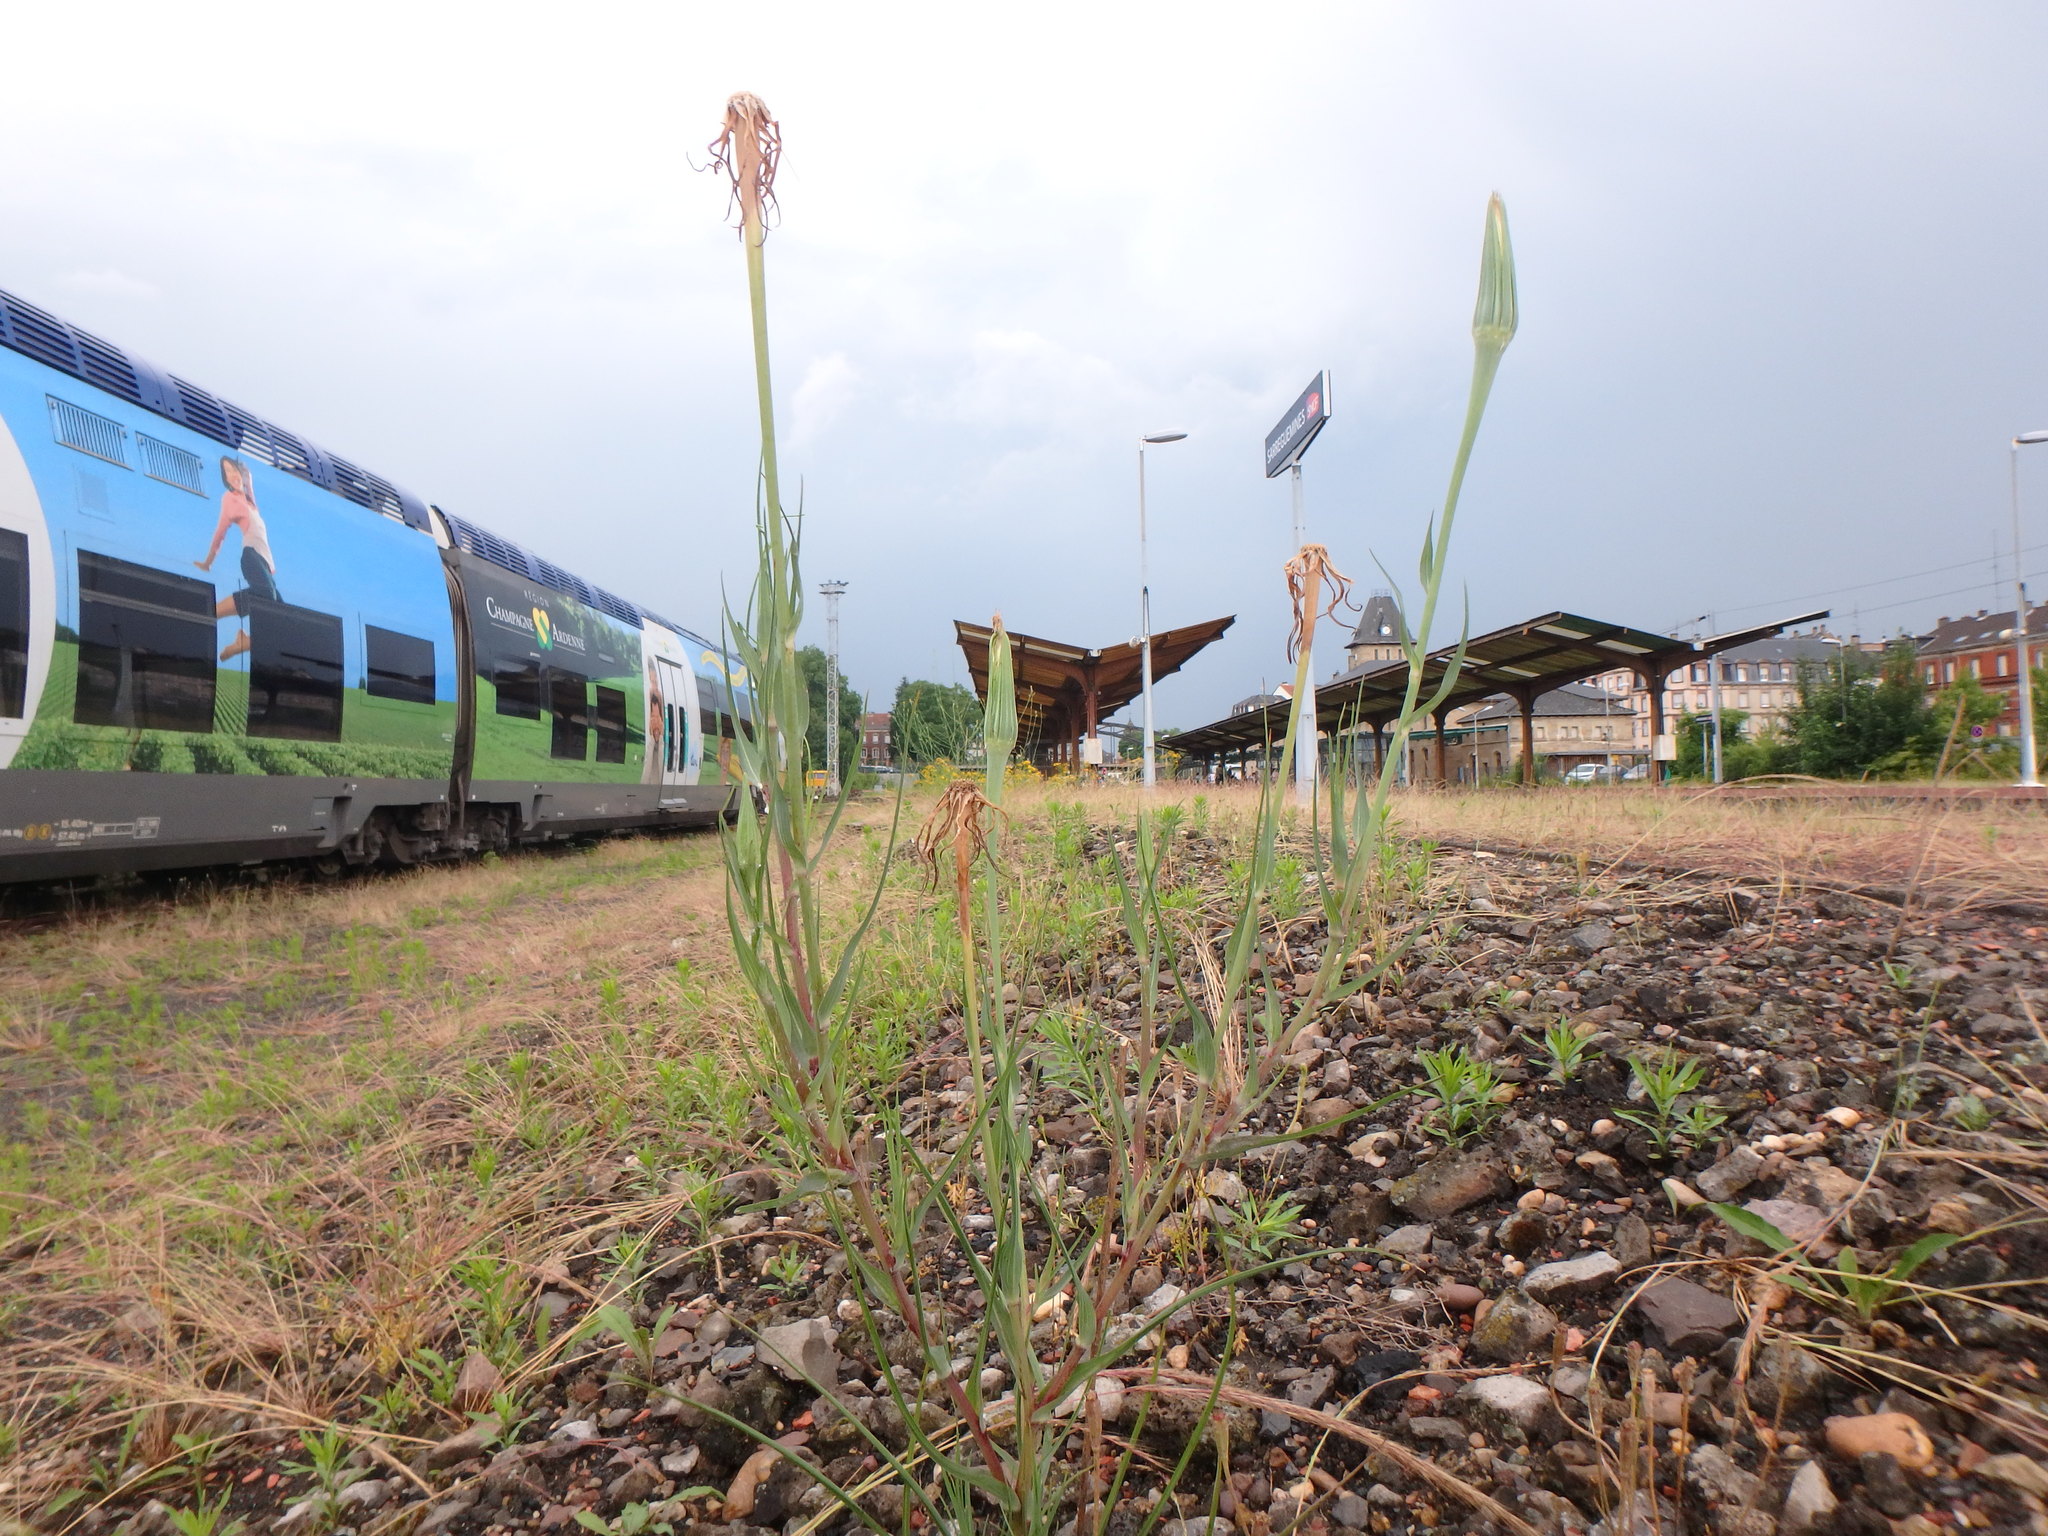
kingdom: Plantae
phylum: Tracheophyta
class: Magnoliopsida
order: Asterales
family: Asteraceae
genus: Tragopogon
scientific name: Tragopogon dubius
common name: Yellow salsify
